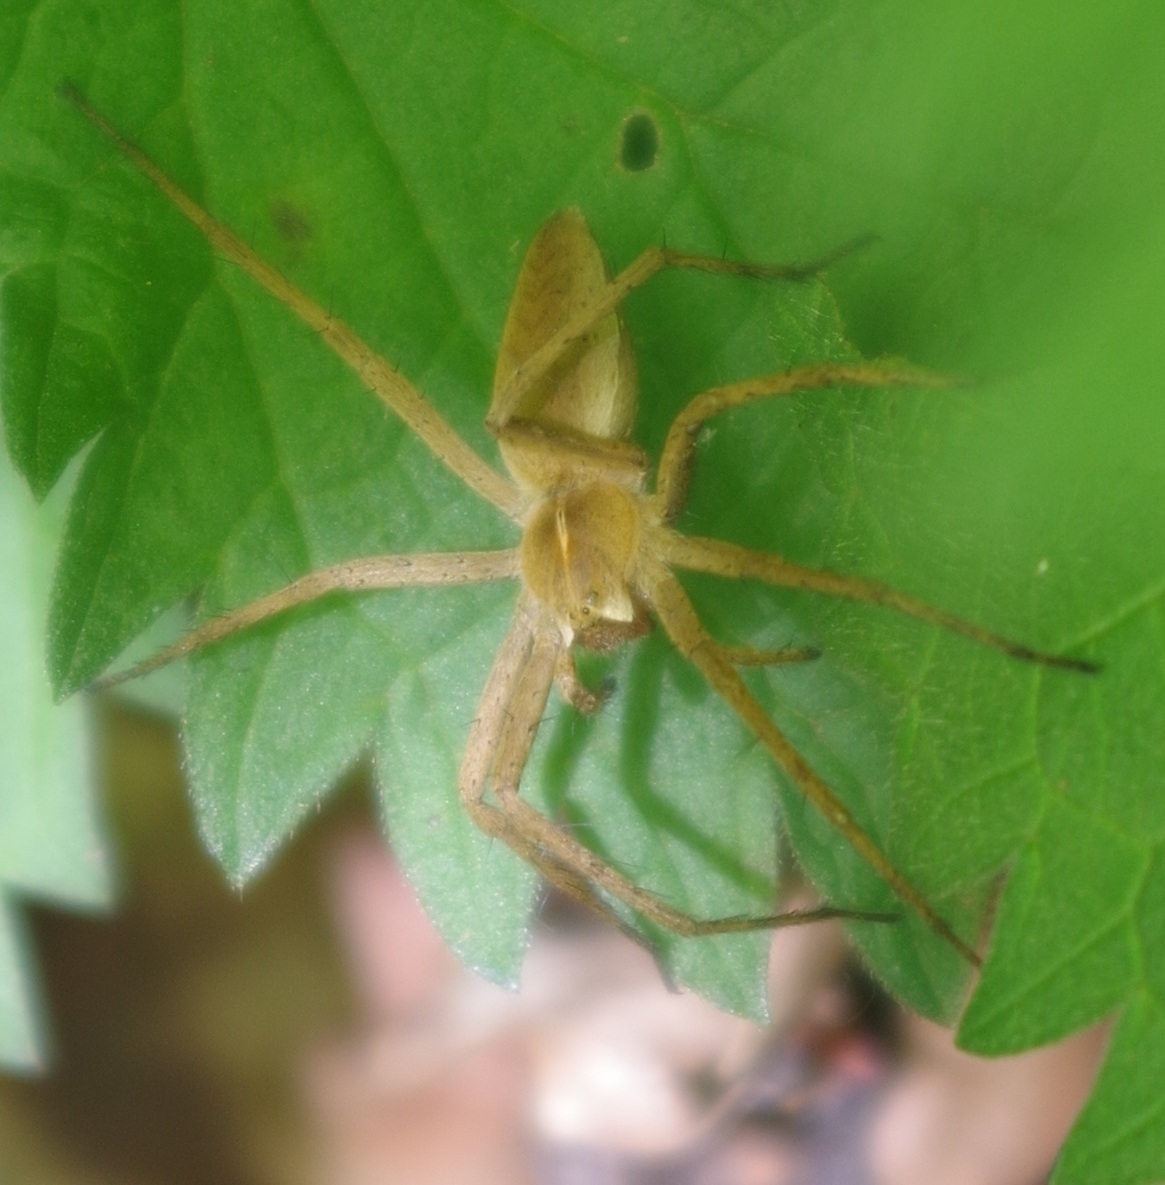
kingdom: Animalia
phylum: Arthropoda
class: Arachnida
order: Araneae
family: Pisauridae
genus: Pisaura
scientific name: Pisaura mirabilis
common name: Tent spider
